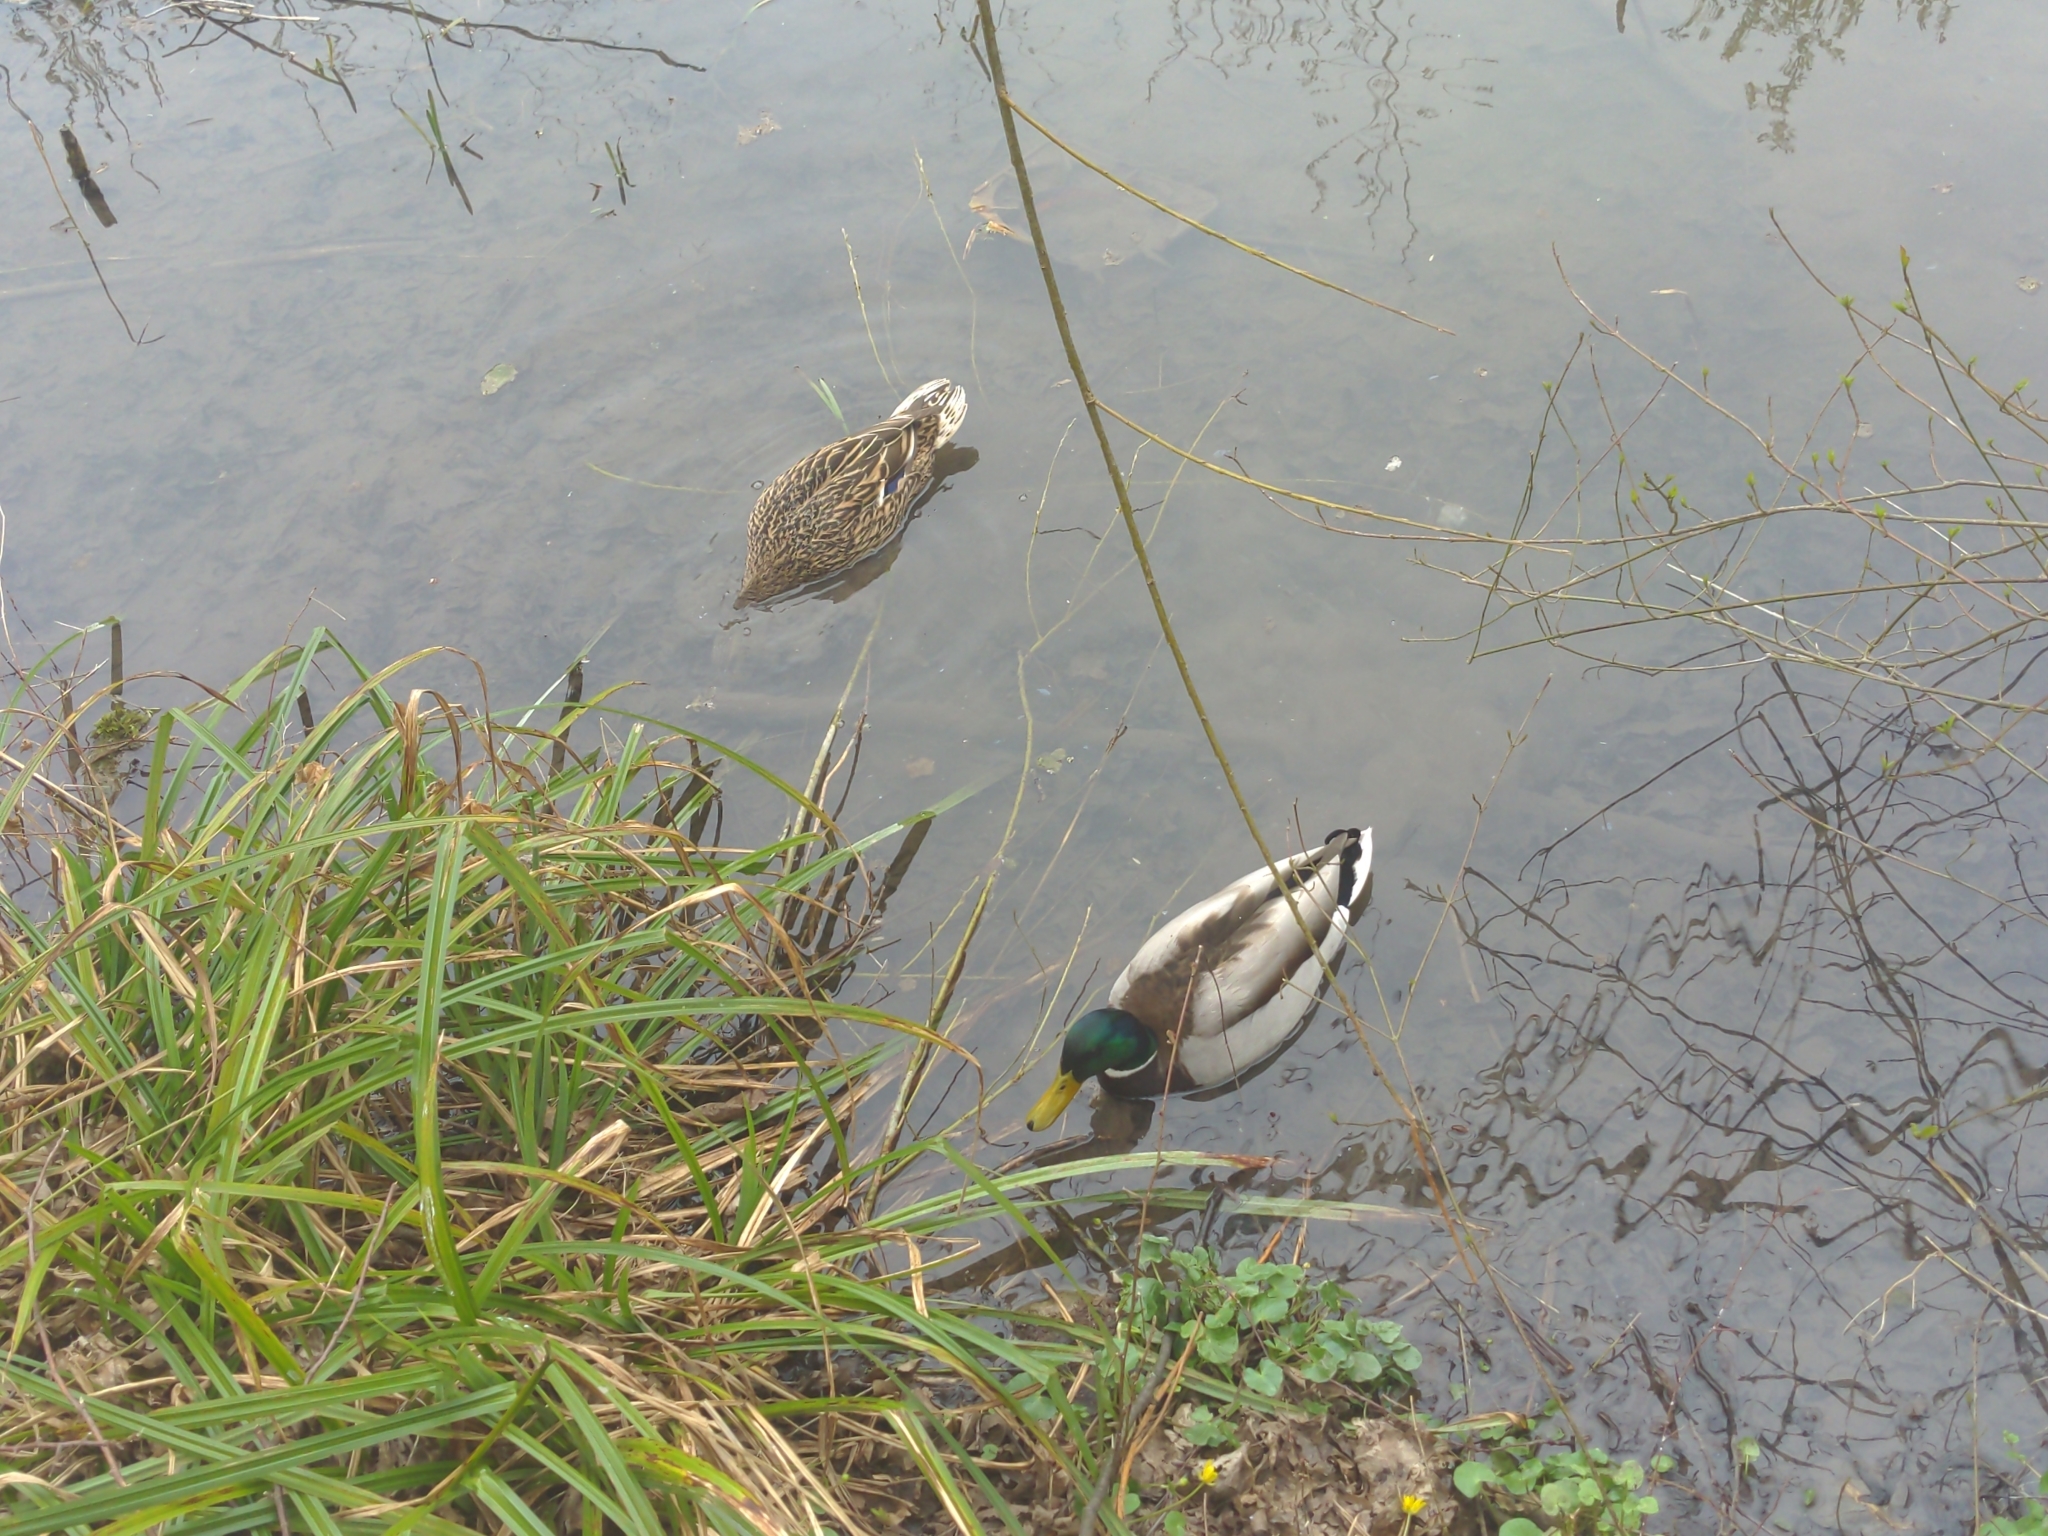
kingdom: Animalia
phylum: Chordata
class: Aves
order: Anseriformes
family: Anatidae
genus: Anas
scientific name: Anas platyrhynchos
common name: Mallard
